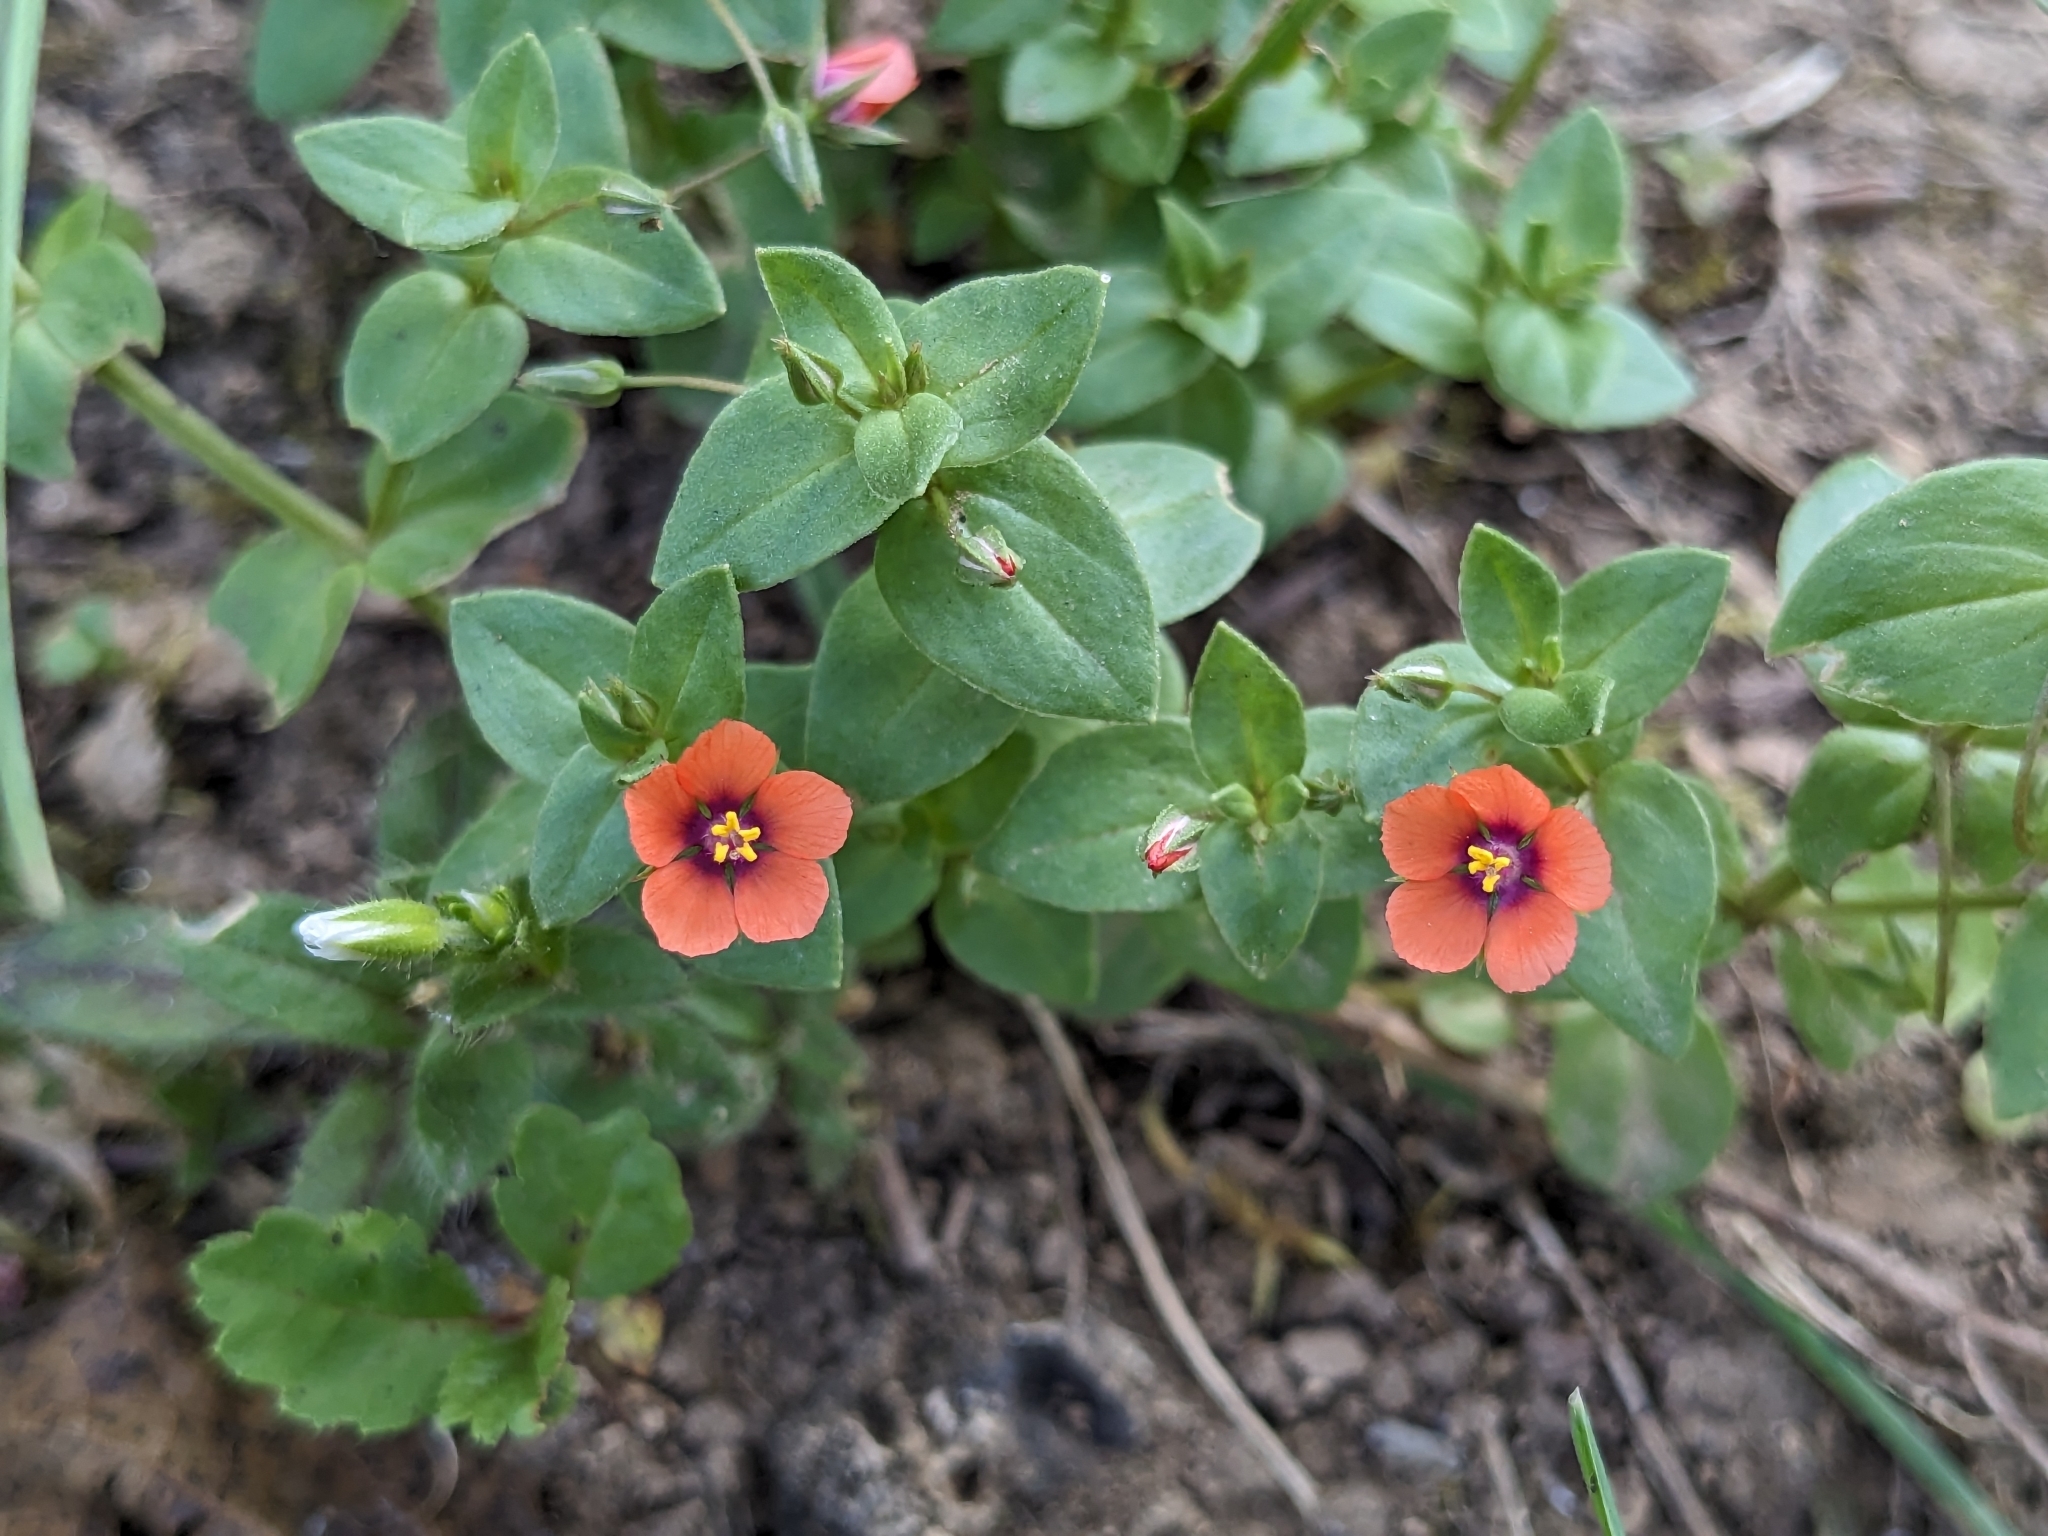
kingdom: Plantae
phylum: Tracheophyta
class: Magnoliopsida
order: Ericales
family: Primulaceae
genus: Lysimachia
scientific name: Lysimachia arvensis
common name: Scarlet pimpernel
